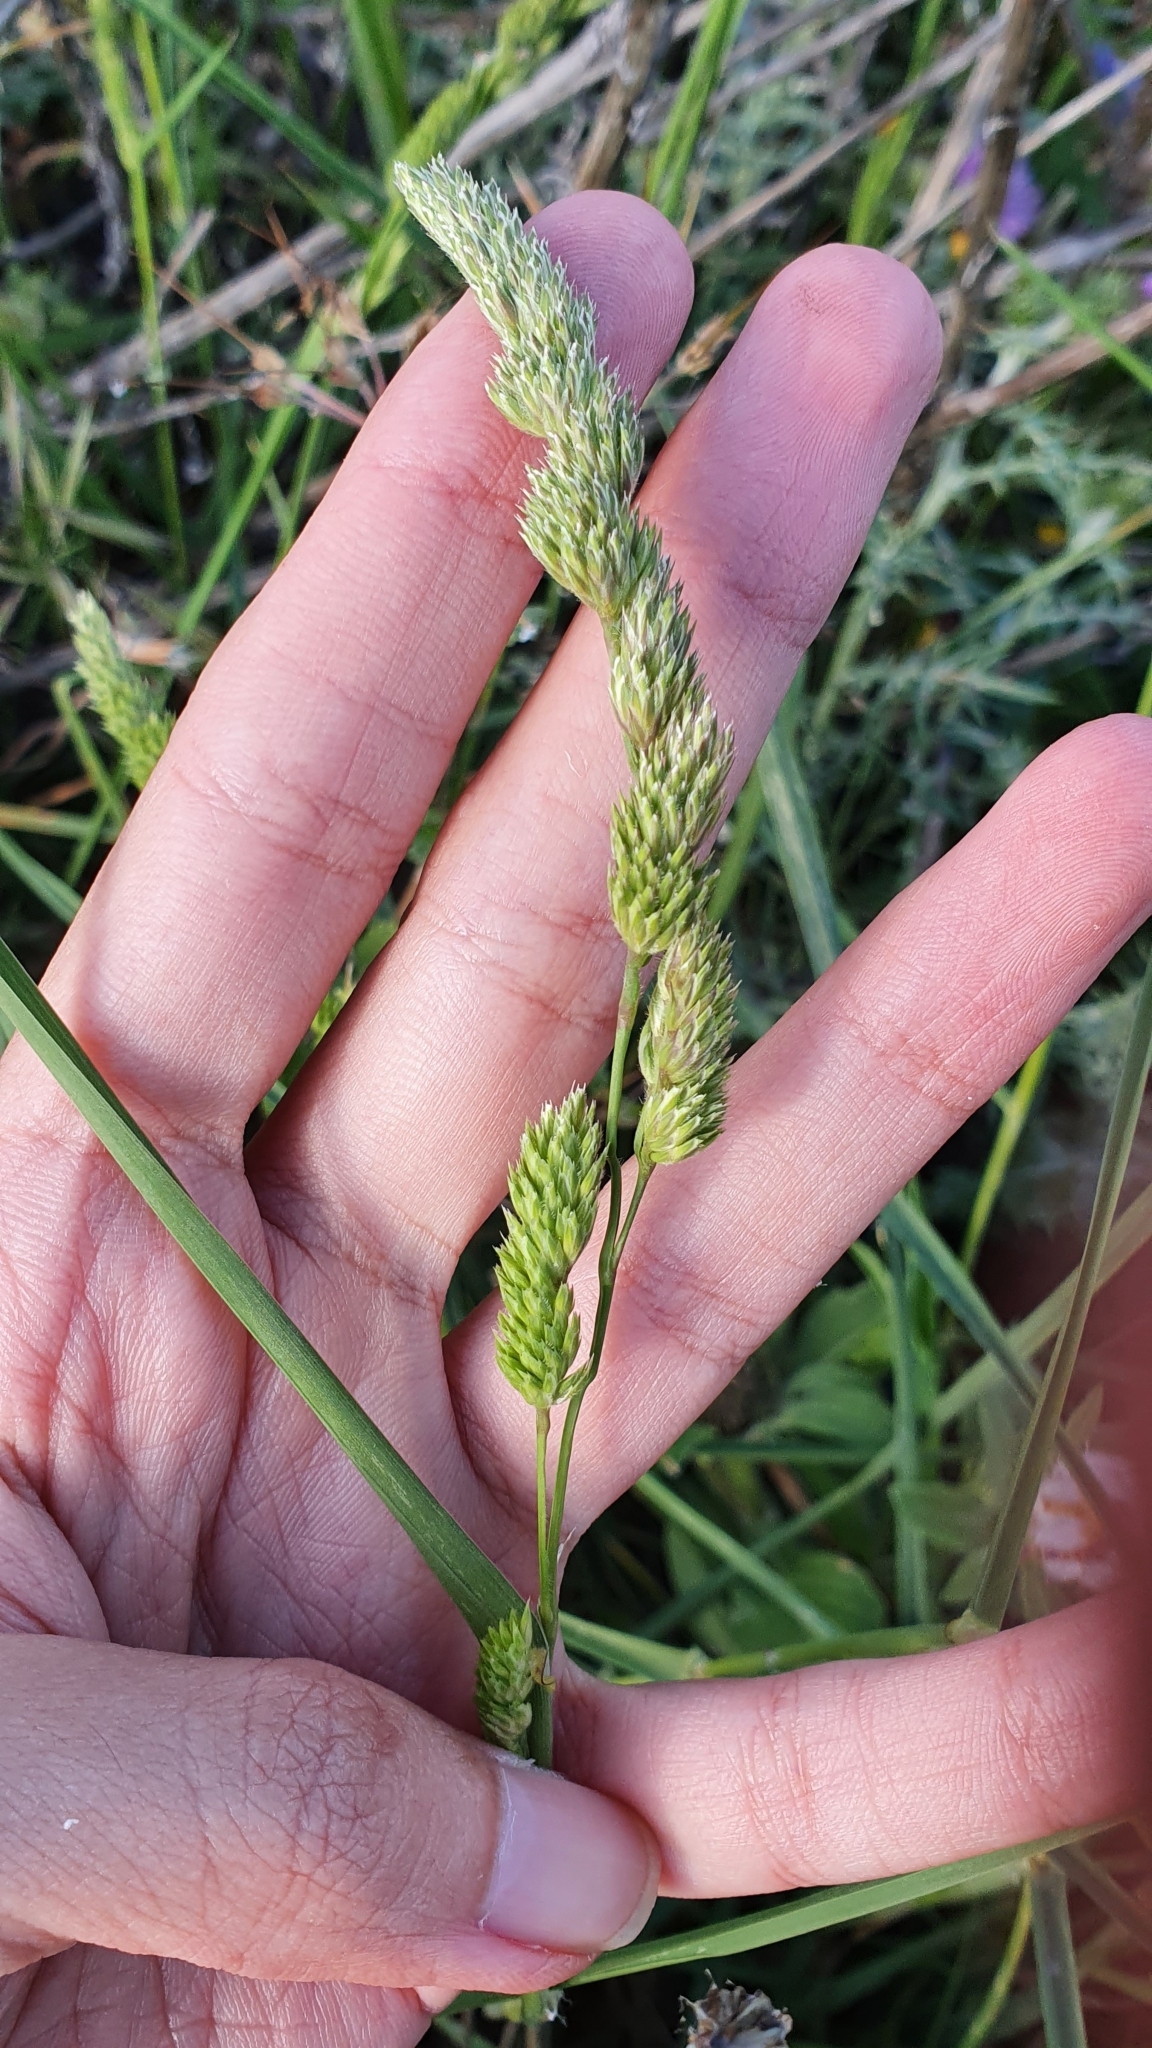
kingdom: Plantae
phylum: Tracheophyta
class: Liliopsida
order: Poales
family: Poaceae
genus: Dactylis
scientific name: Dactylis glomerata
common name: Orchardgrass
